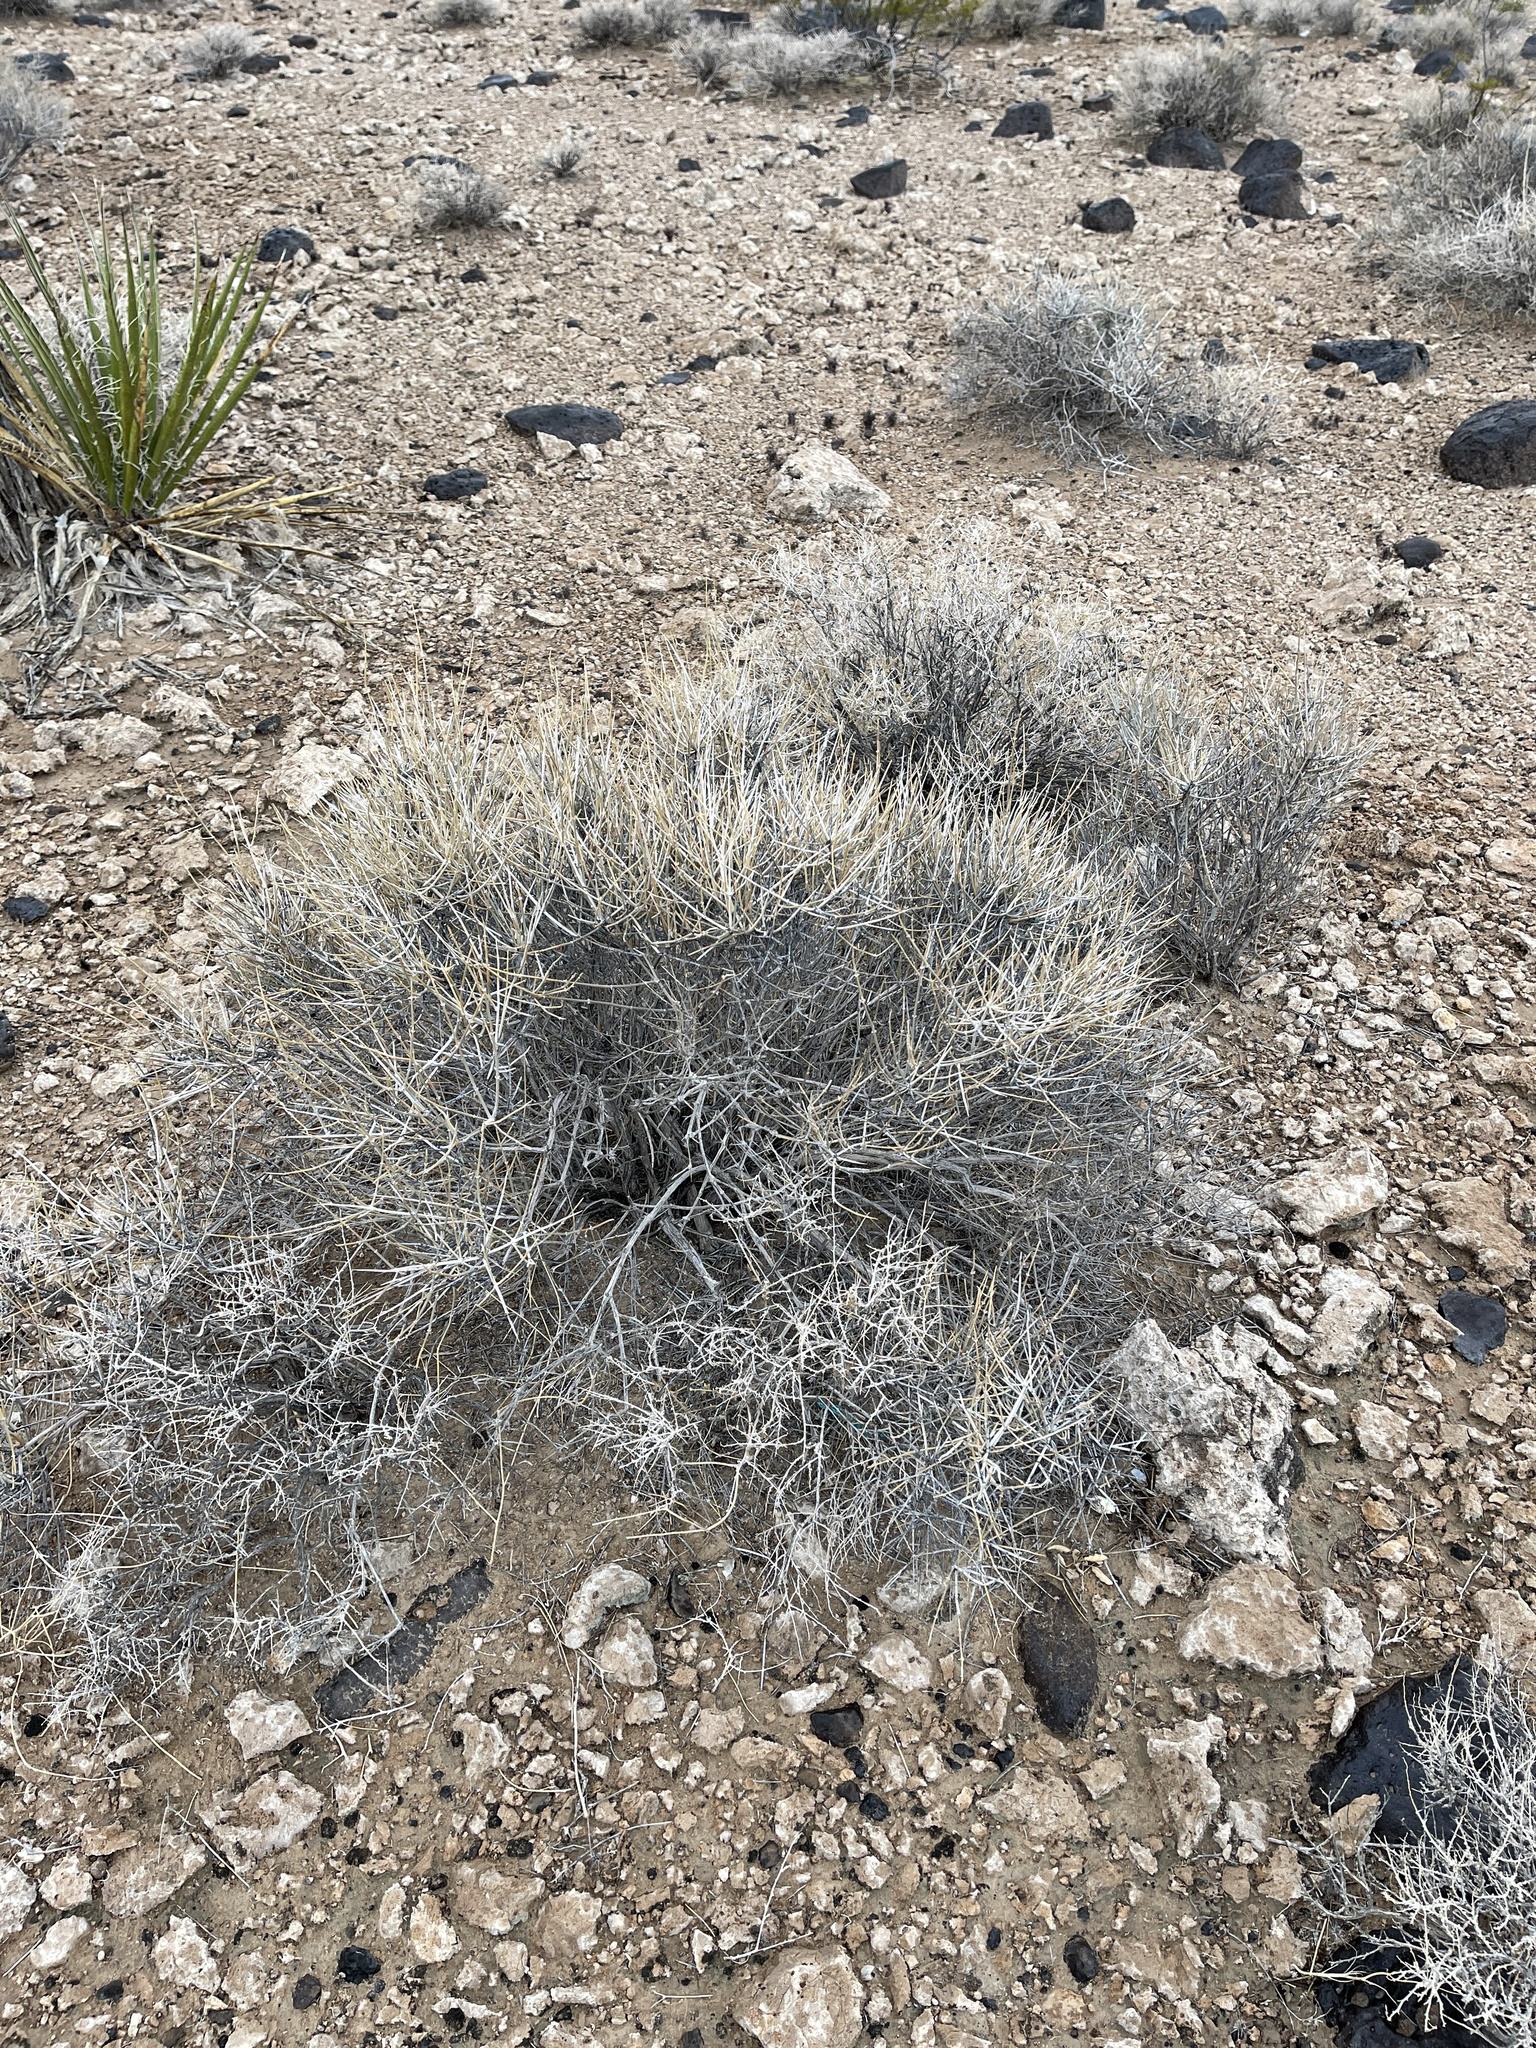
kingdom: Plantae
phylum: Tracheophyta
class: Gnetopsida
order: Ephedrales
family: Ephedraceae
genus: Ephedra
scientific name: Ephedra nevadensis
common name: Gray ephedra
